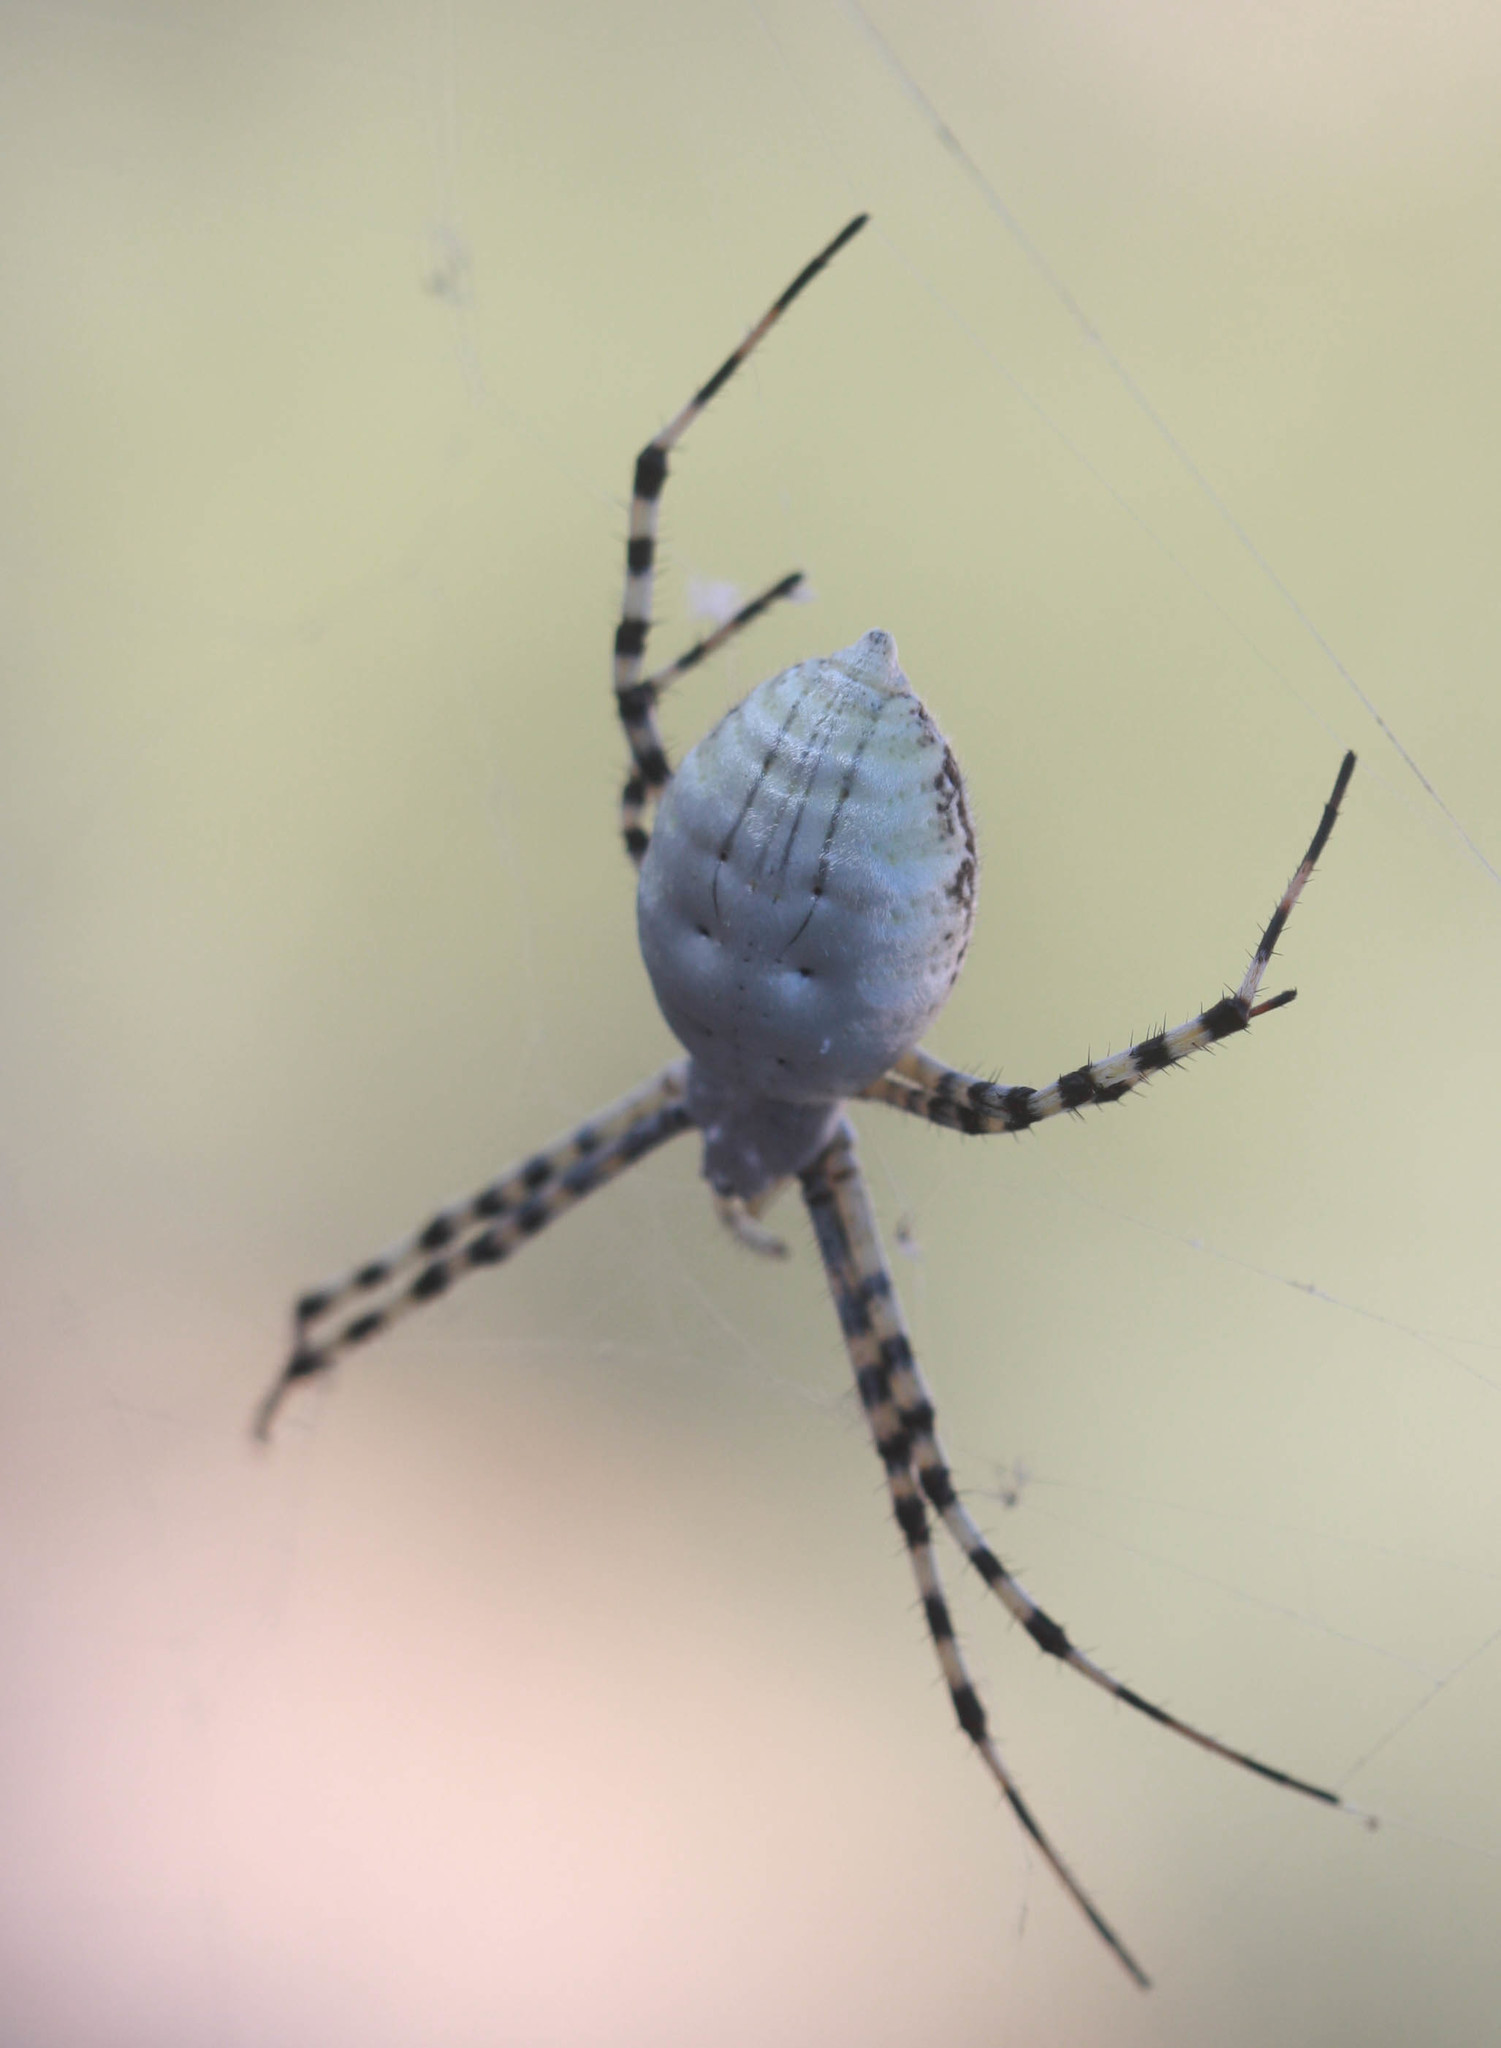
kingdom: Animalia
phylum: Arthropoda
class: Arachnida
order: Araneae
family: Araneidae
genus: Argiope
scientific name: Argiope trifasciata
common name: Banded garden spider
